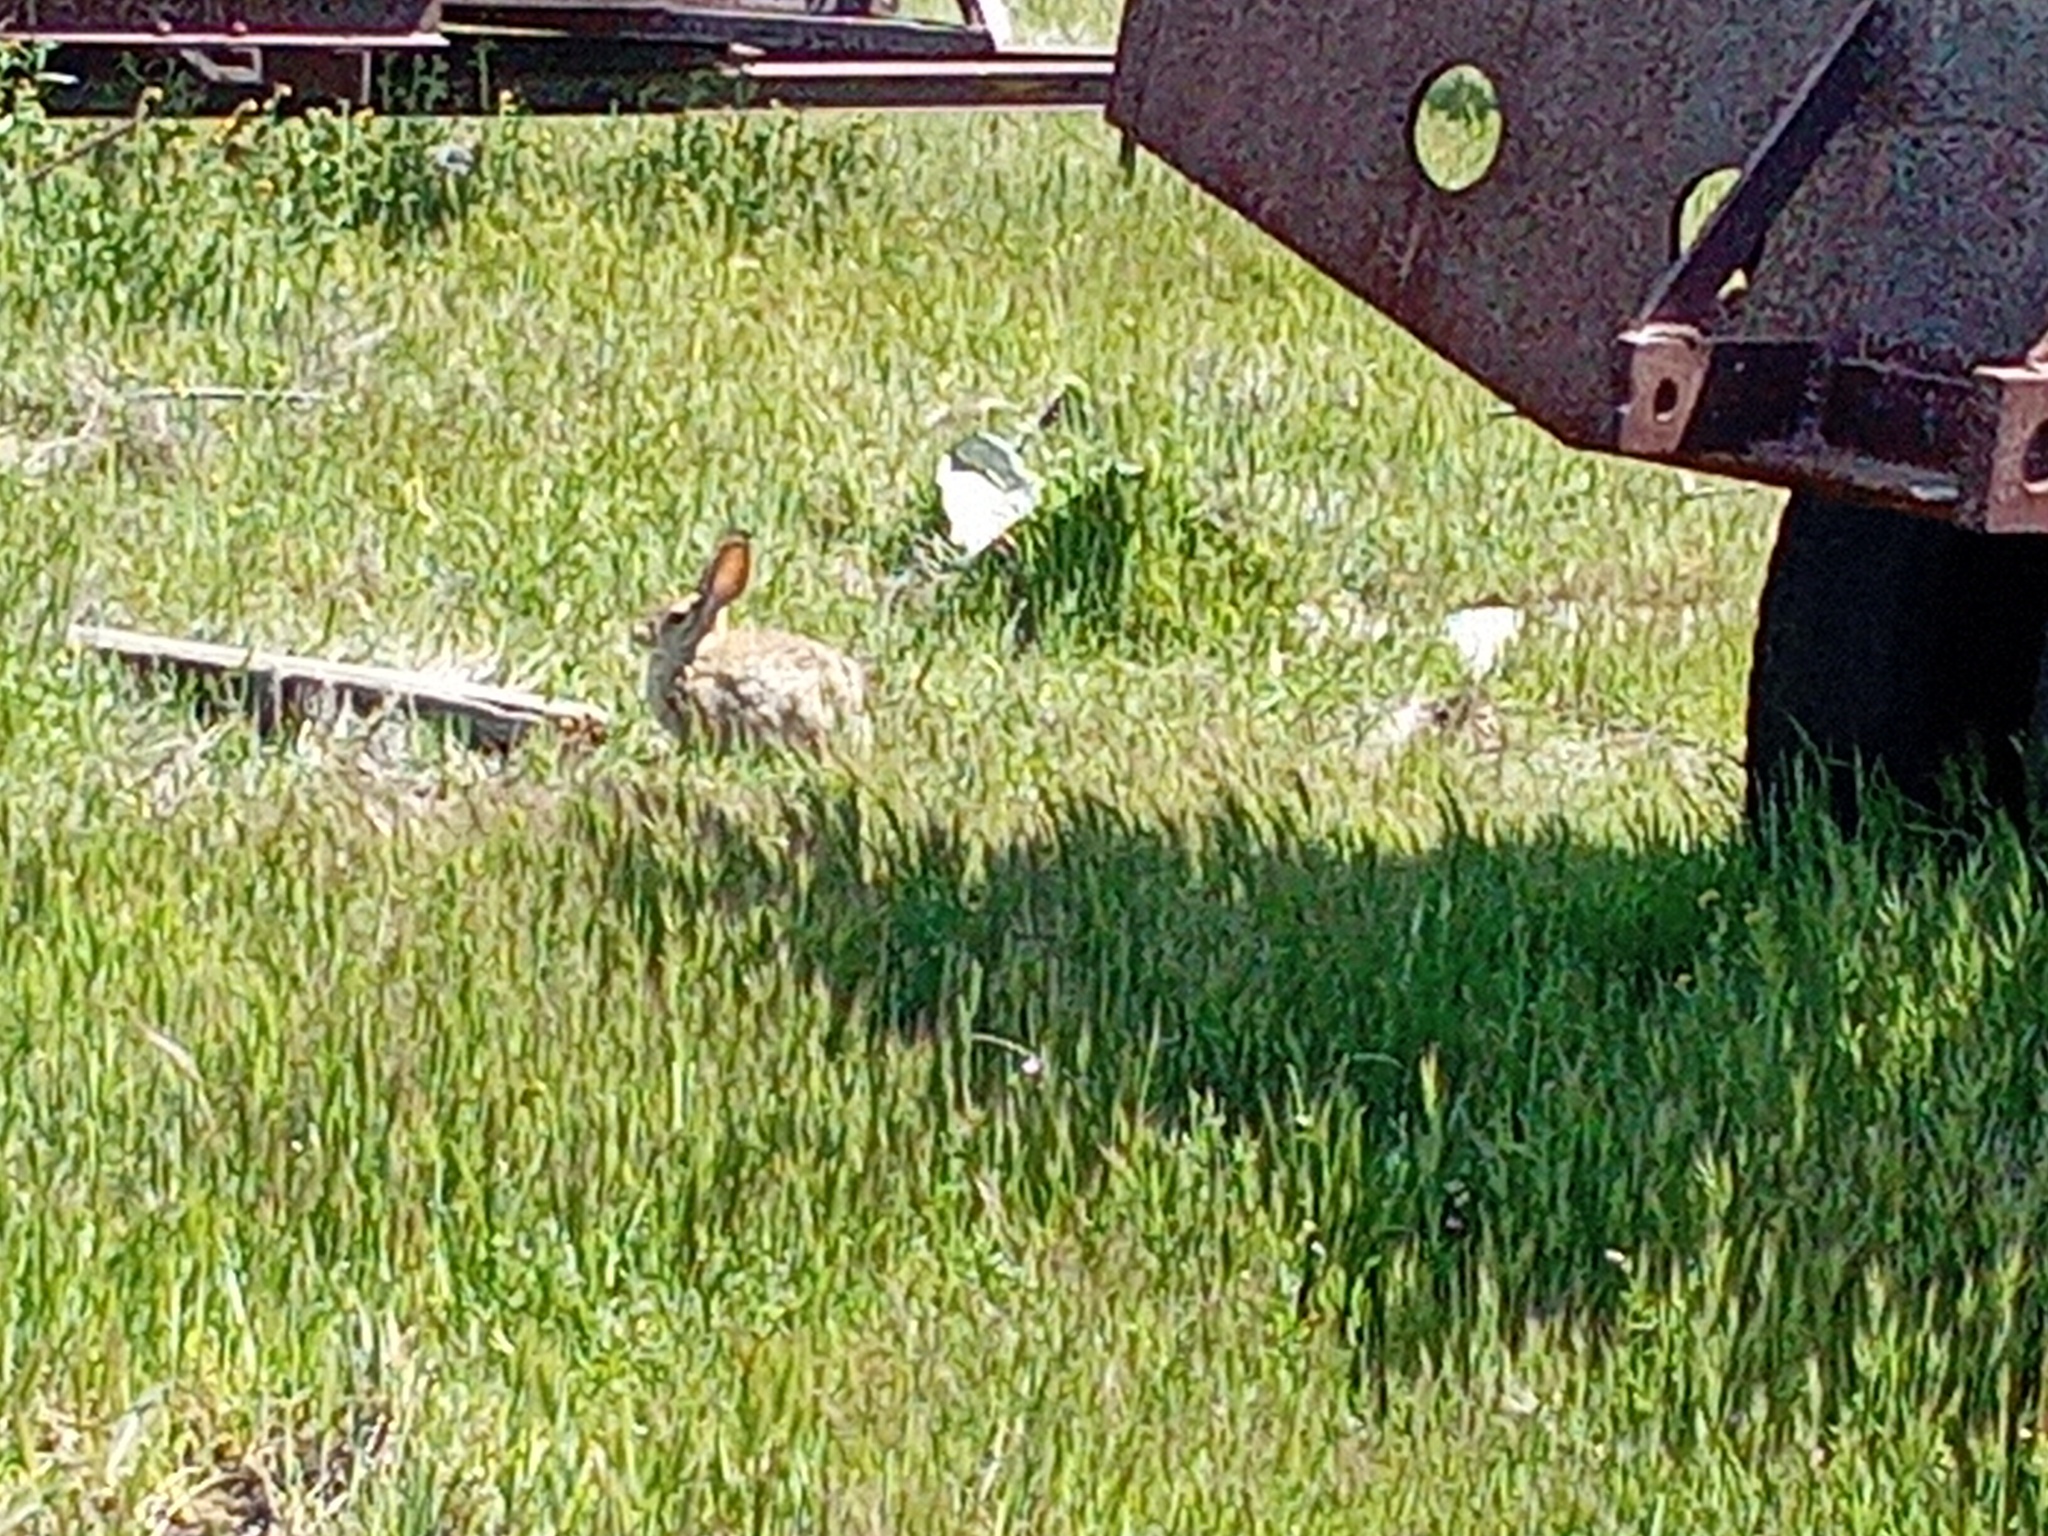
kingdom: Animalia
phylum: Chordata
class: Mammalia
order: Lagomorpha
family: Leporidae
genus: Sylvilagus
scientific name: Sylvilagus audubonii
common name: Desert cottontail
